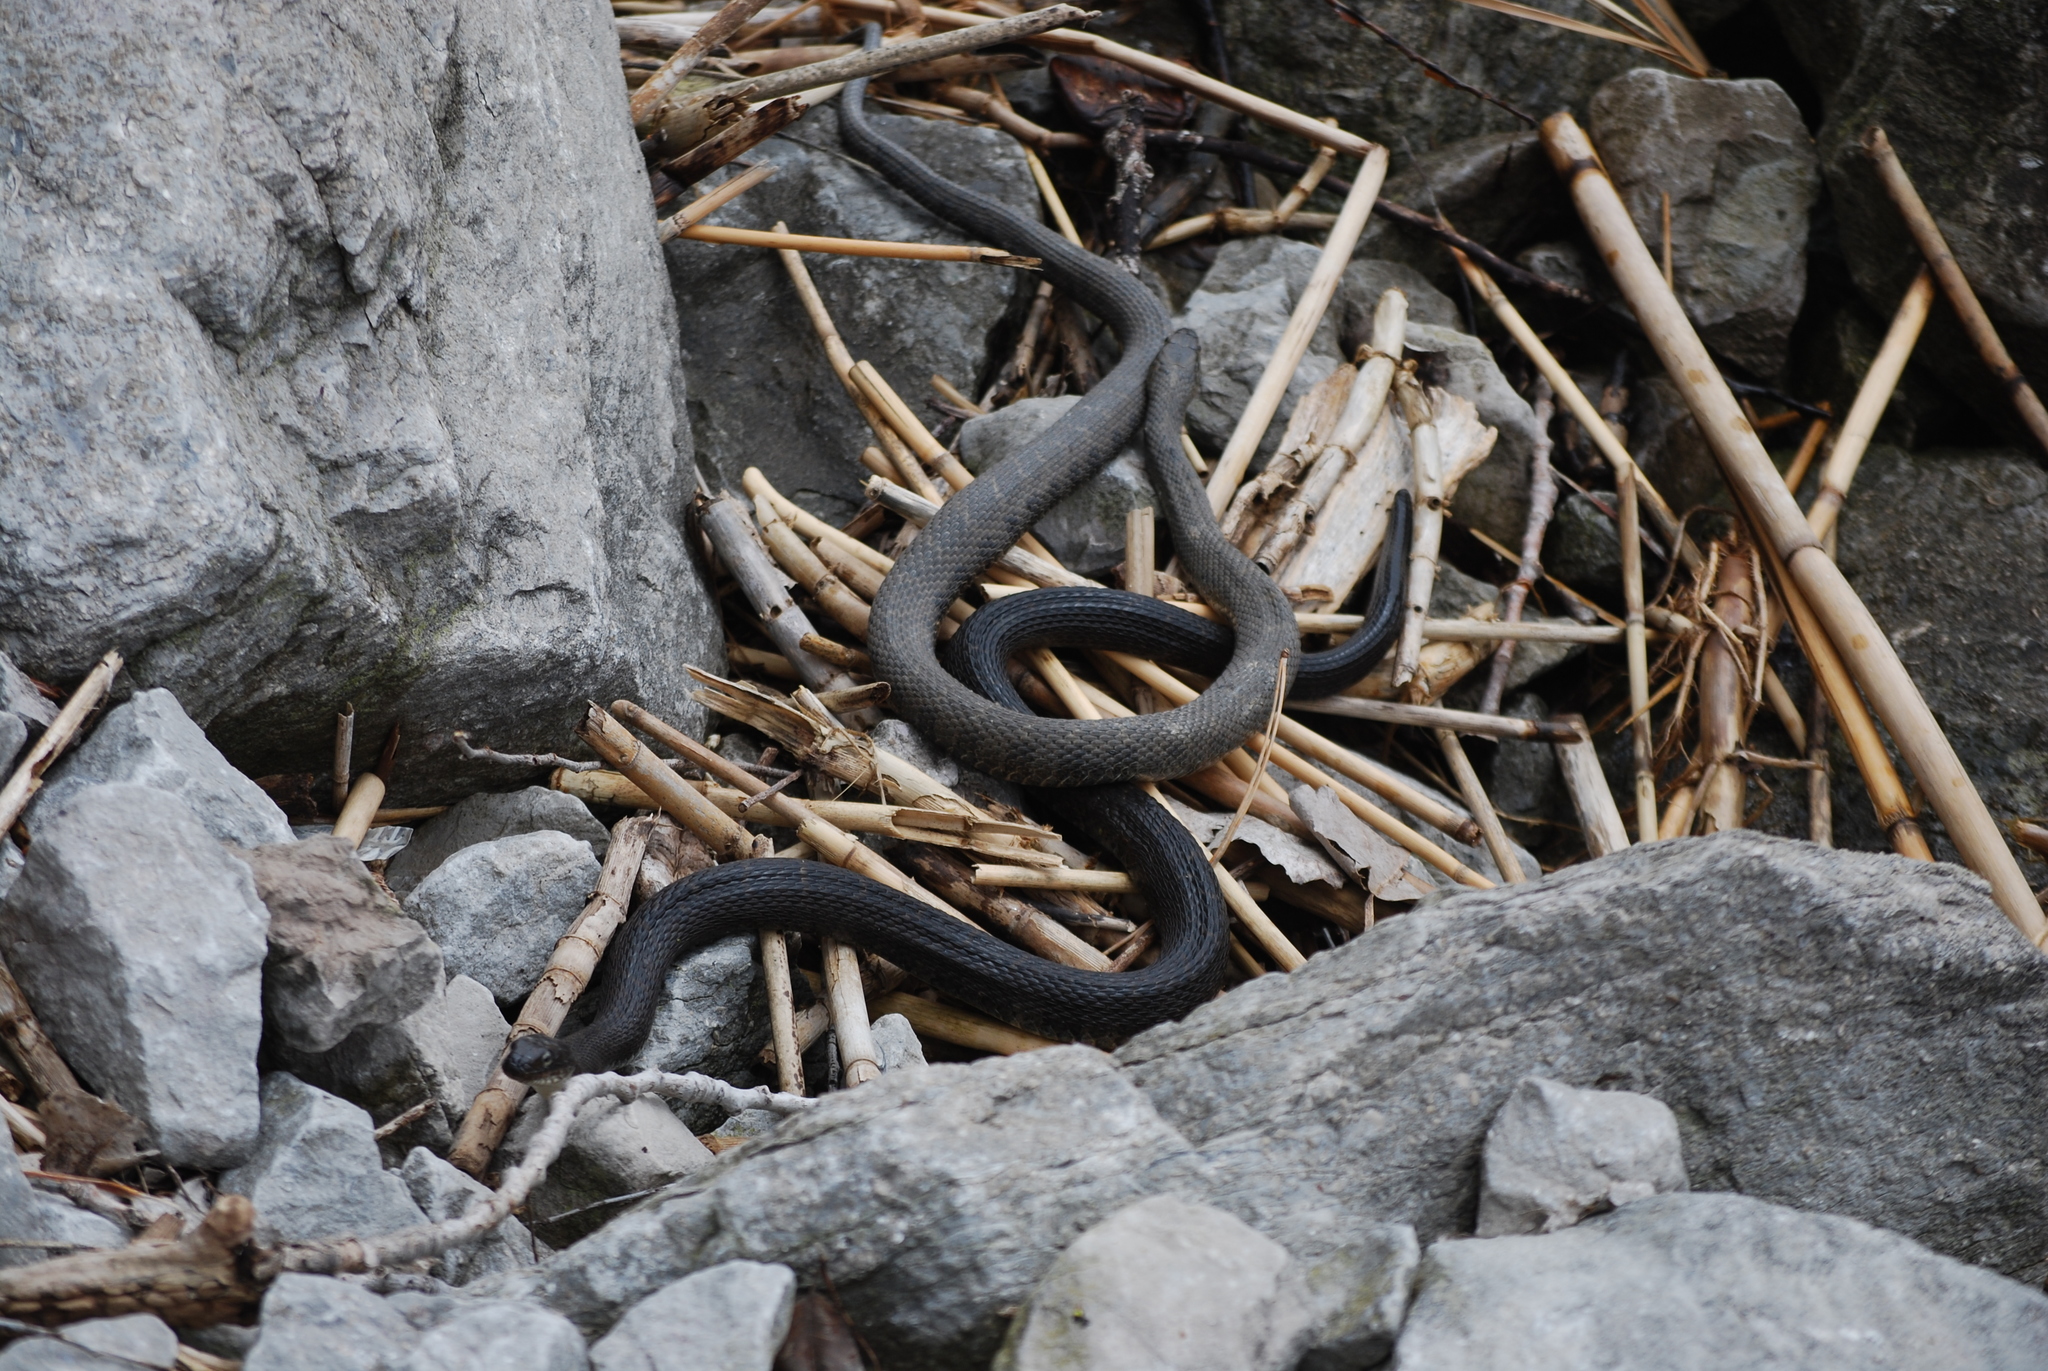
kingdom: Animalia
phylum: Chordata
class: Squamata
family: Colubridae
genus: Nerodia
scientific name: Nerodia sipedon
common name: Northern water snake
